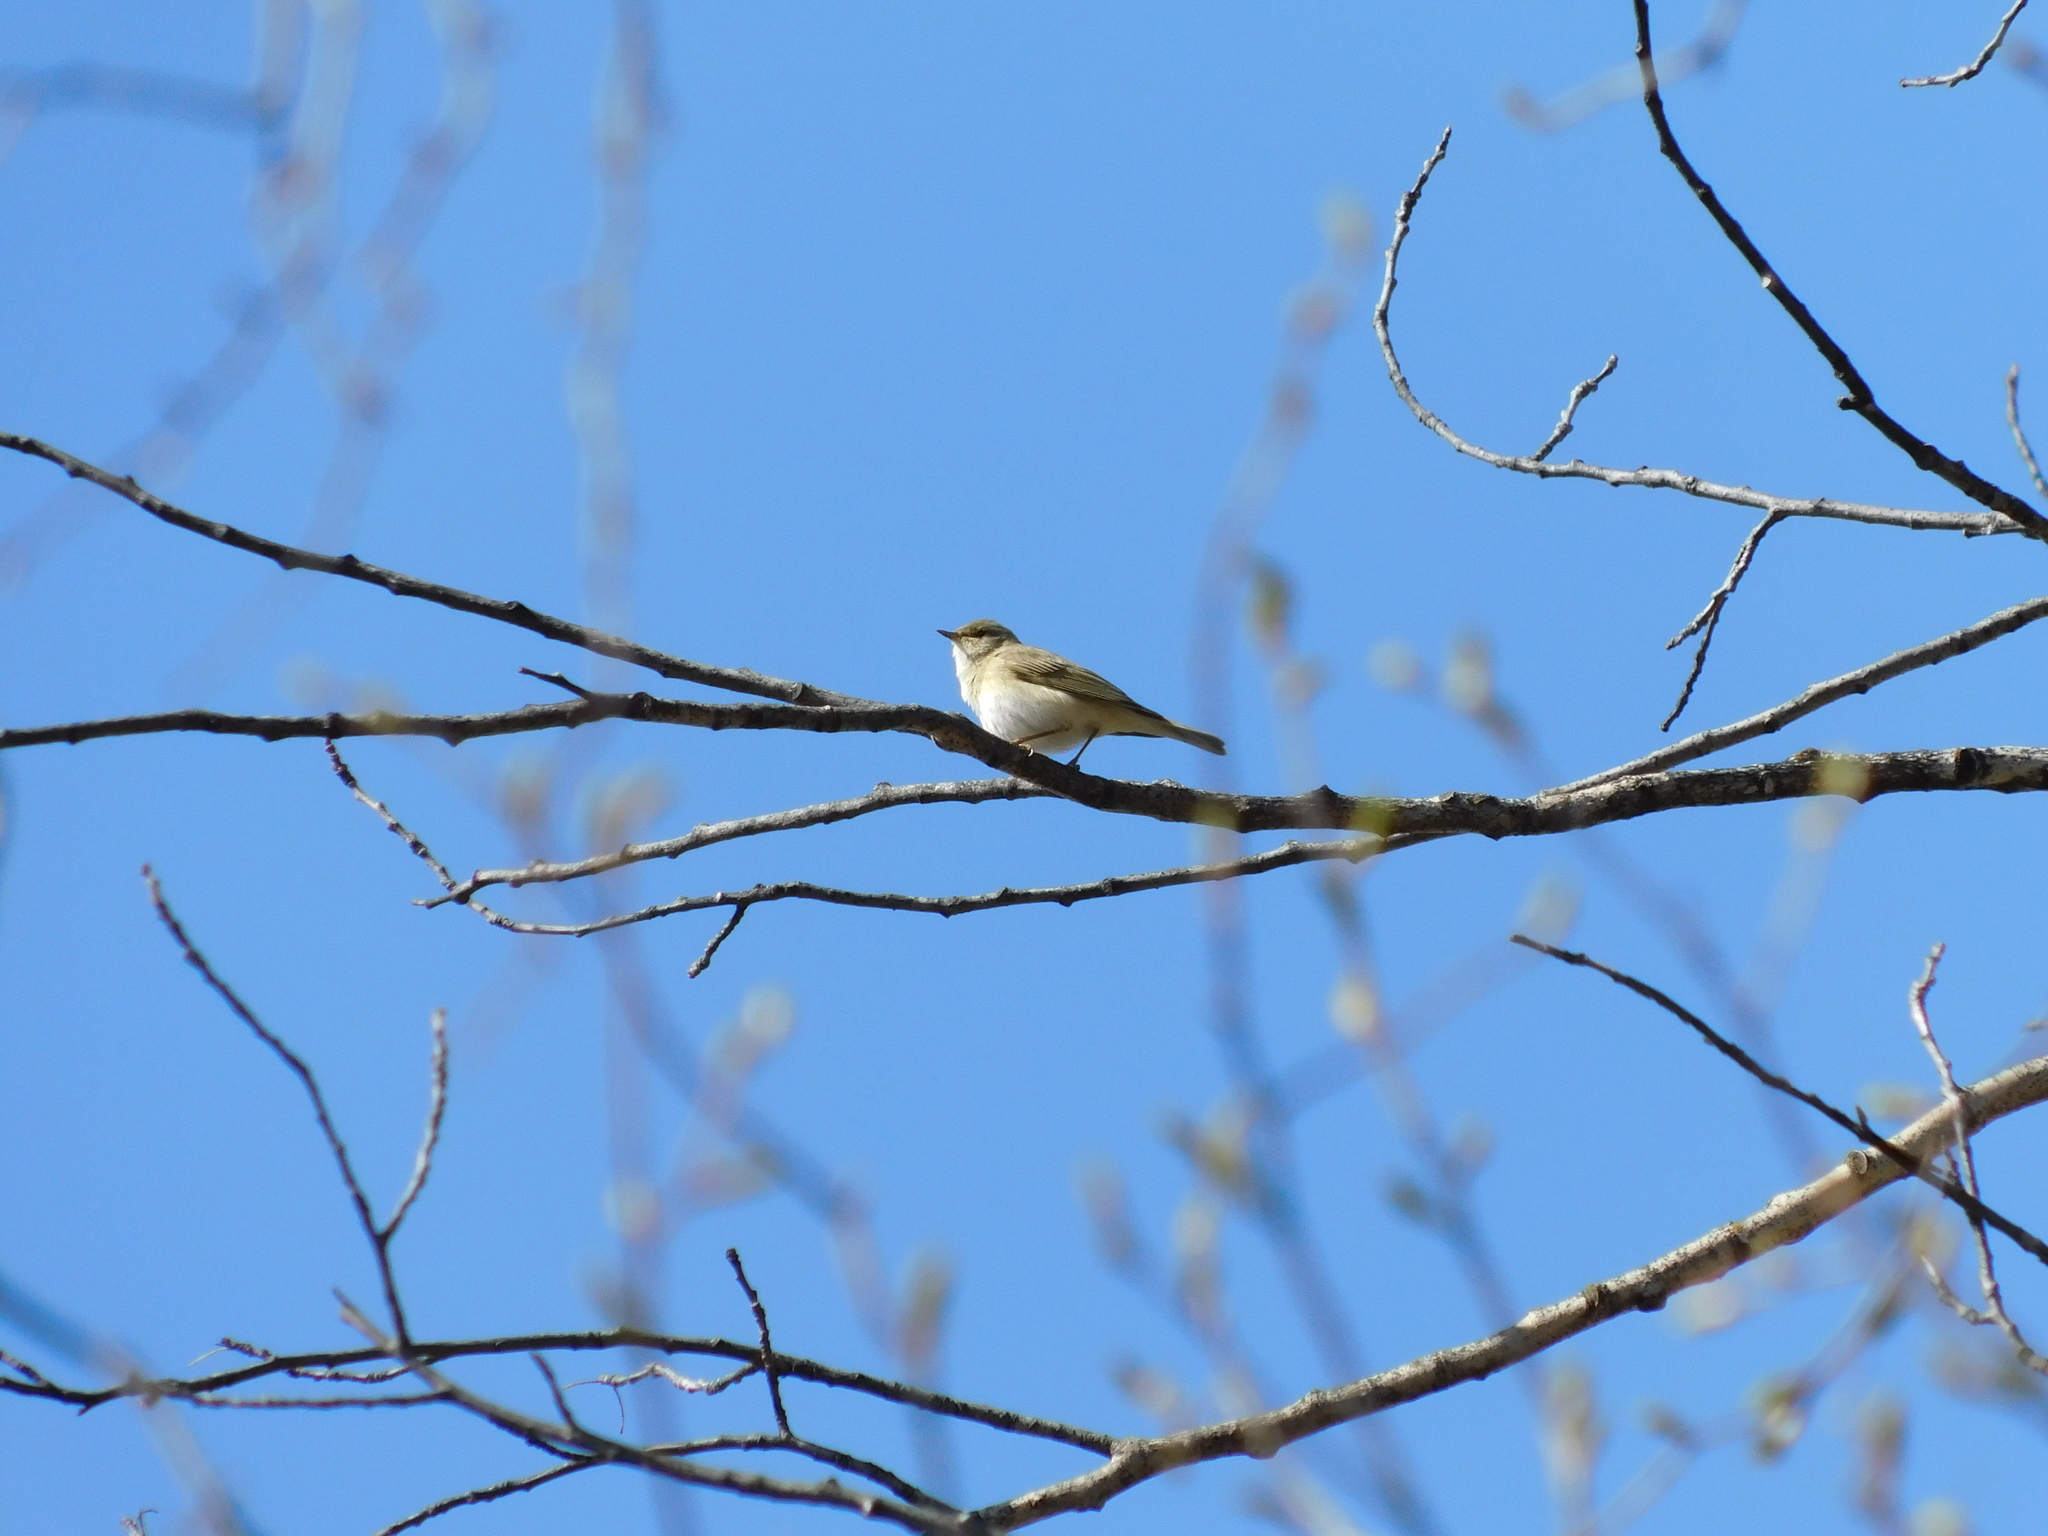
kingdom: Animalia
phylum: Chordata
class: Aves
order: Passeriformes
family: Phylloscopidae
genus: Phylloscopus
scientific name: Phylloscopus trochilus
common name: Willow warbler
